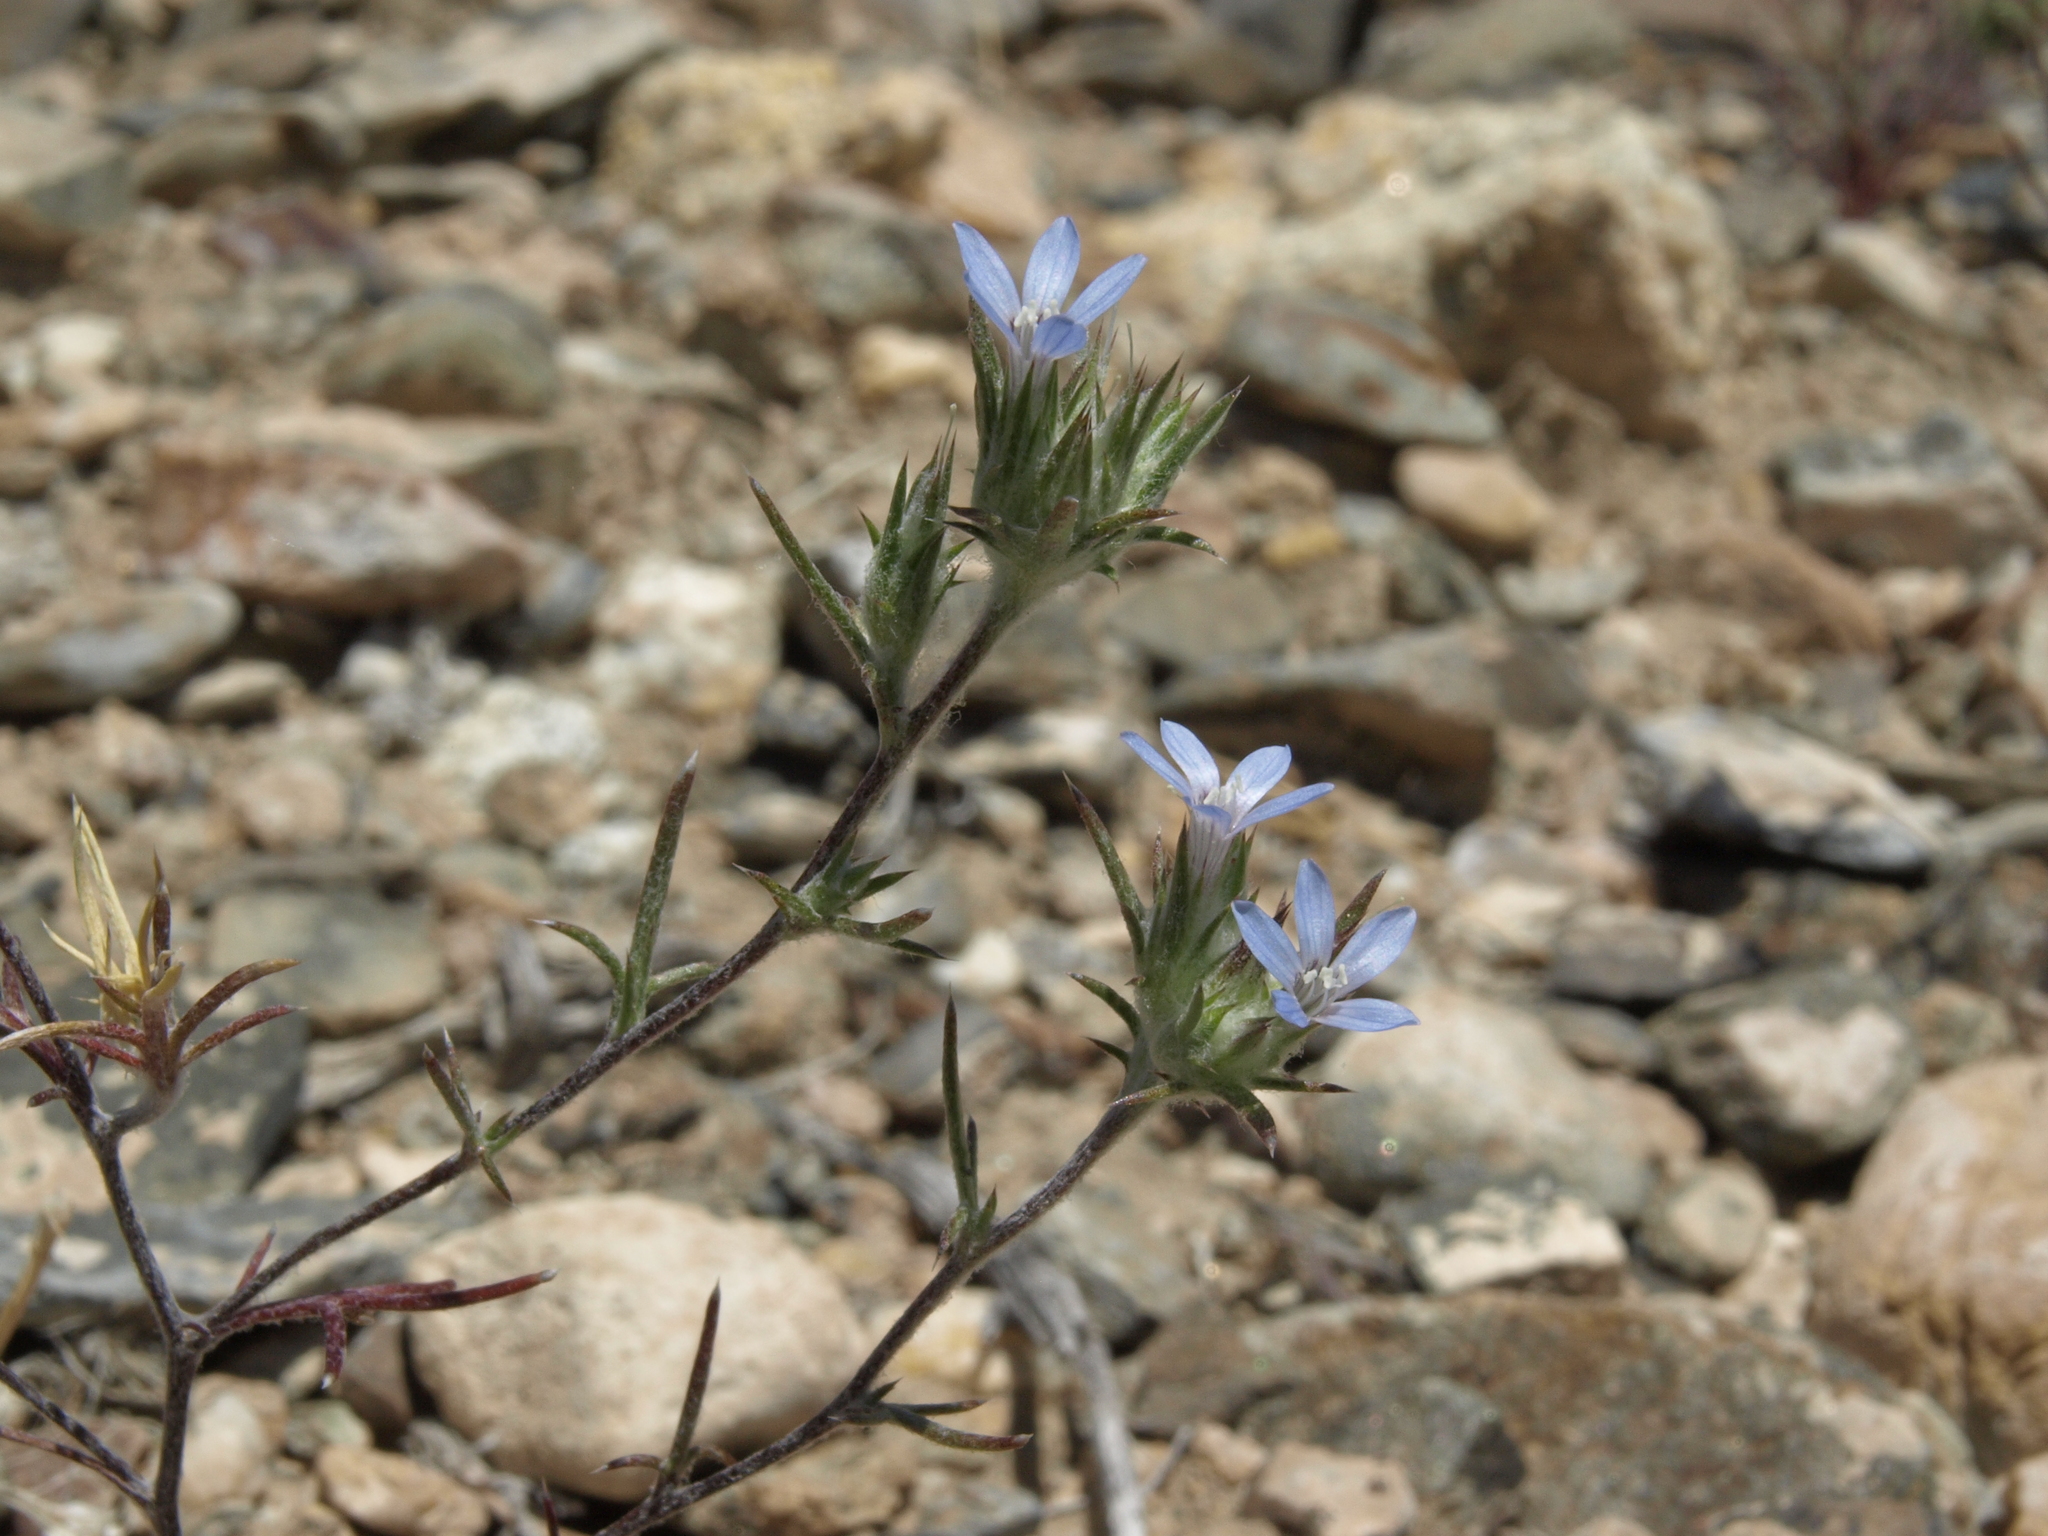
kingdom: Plantae
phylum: Tracheophyta
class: Magnoliopsida
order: Ericales
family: Polemoniaceae
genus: Eriastrum
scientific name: Eriastrum wilcoxii
